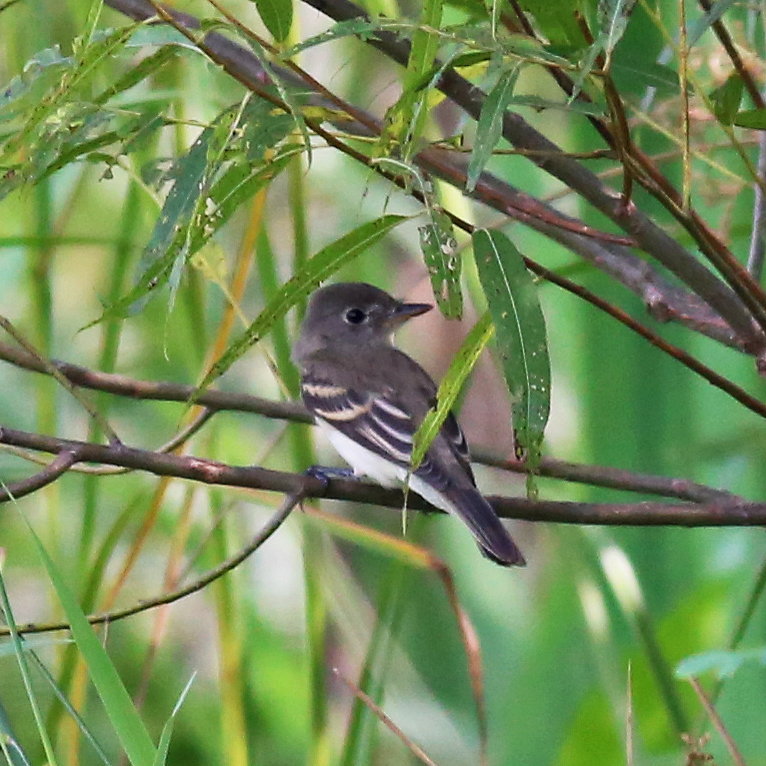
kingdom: Animalia
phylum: Chordata
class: Aves
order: Passeriformes
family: Tyrannidae
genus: Empidonax
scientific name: Empidonax traillii
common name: Willow flycatcher
